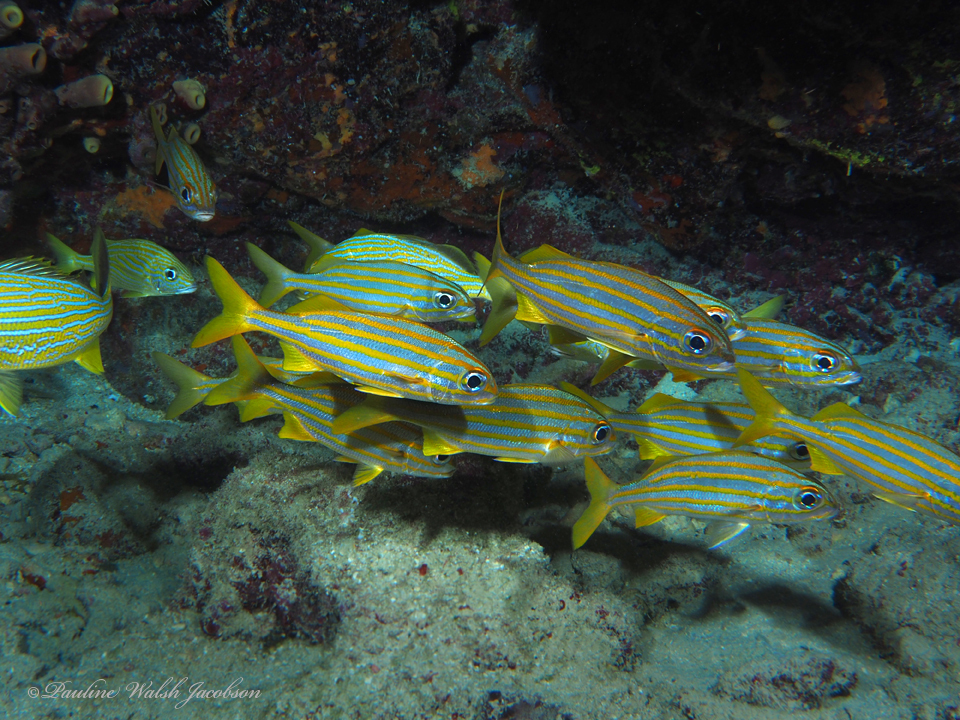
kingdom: Animalia
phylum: Chordata
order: Perciformes
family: Haemulidae
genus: Haemulon
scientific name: Haemulon chrysargyreum
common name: Smallmouth grunt
